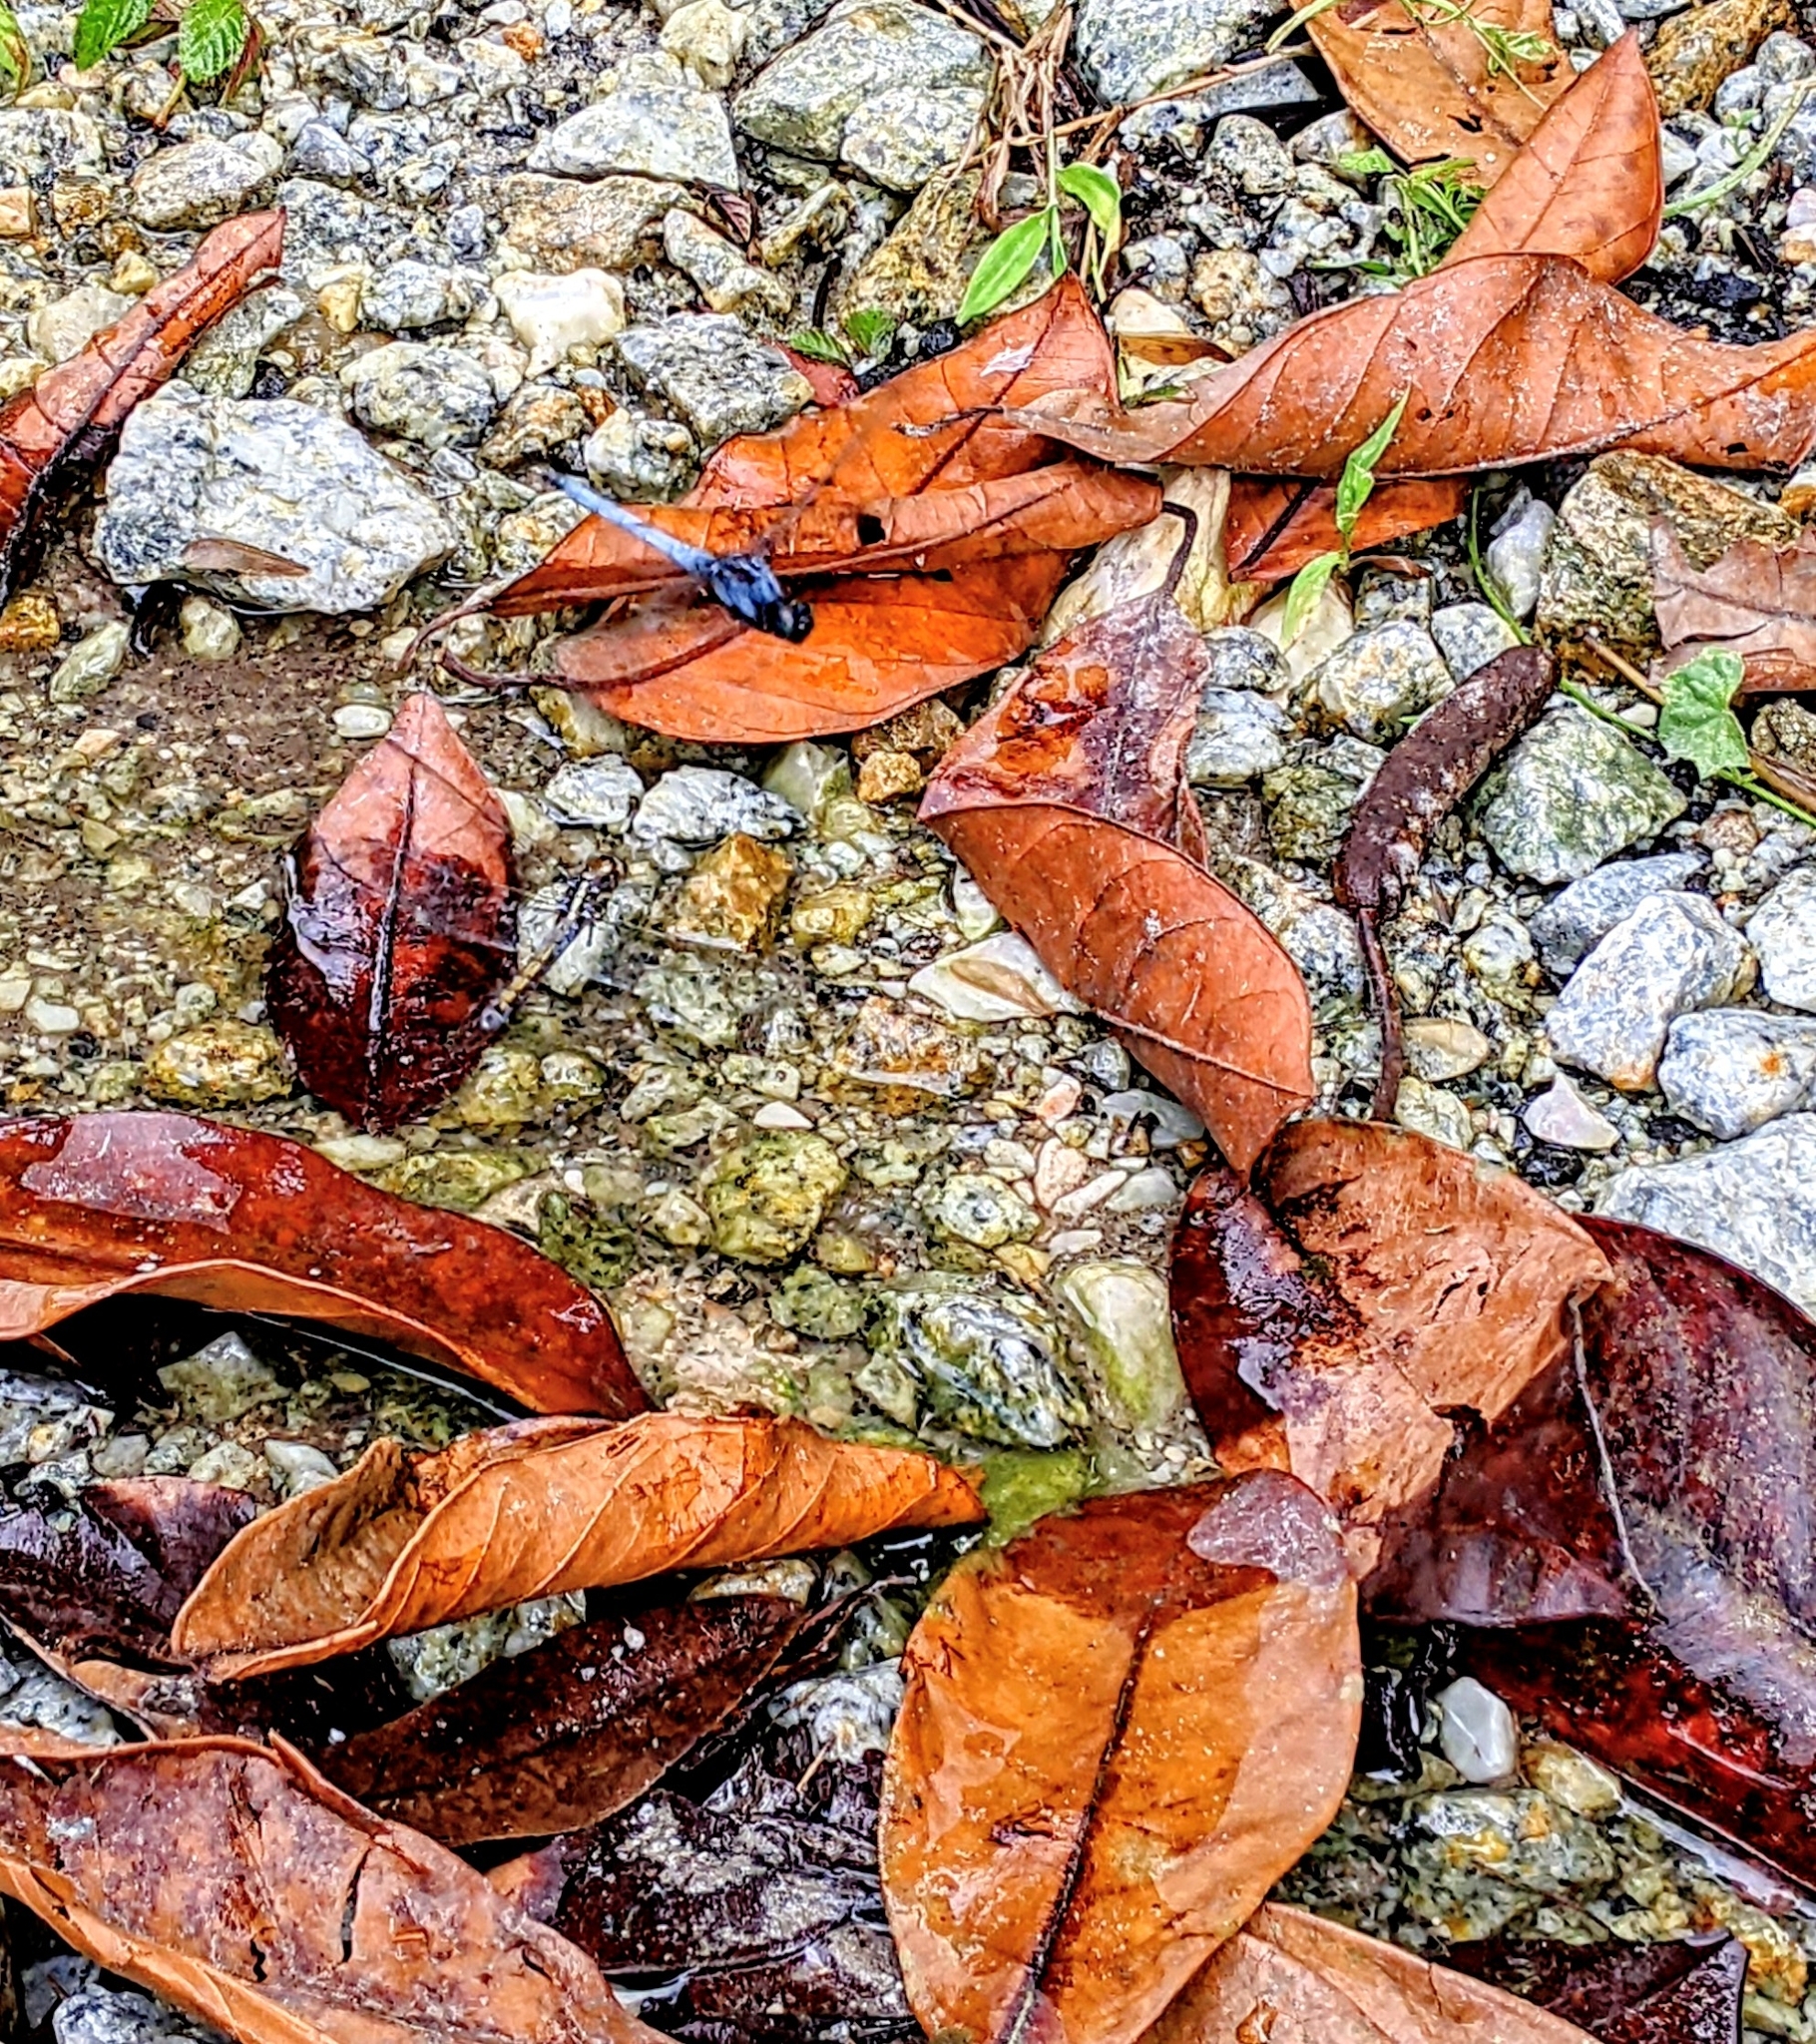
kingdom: Animalia
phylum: Arthropoda
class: Insecta
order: Odonata
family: Libellulidae
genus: Orthetrum
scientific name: Orthetrum glaucum
